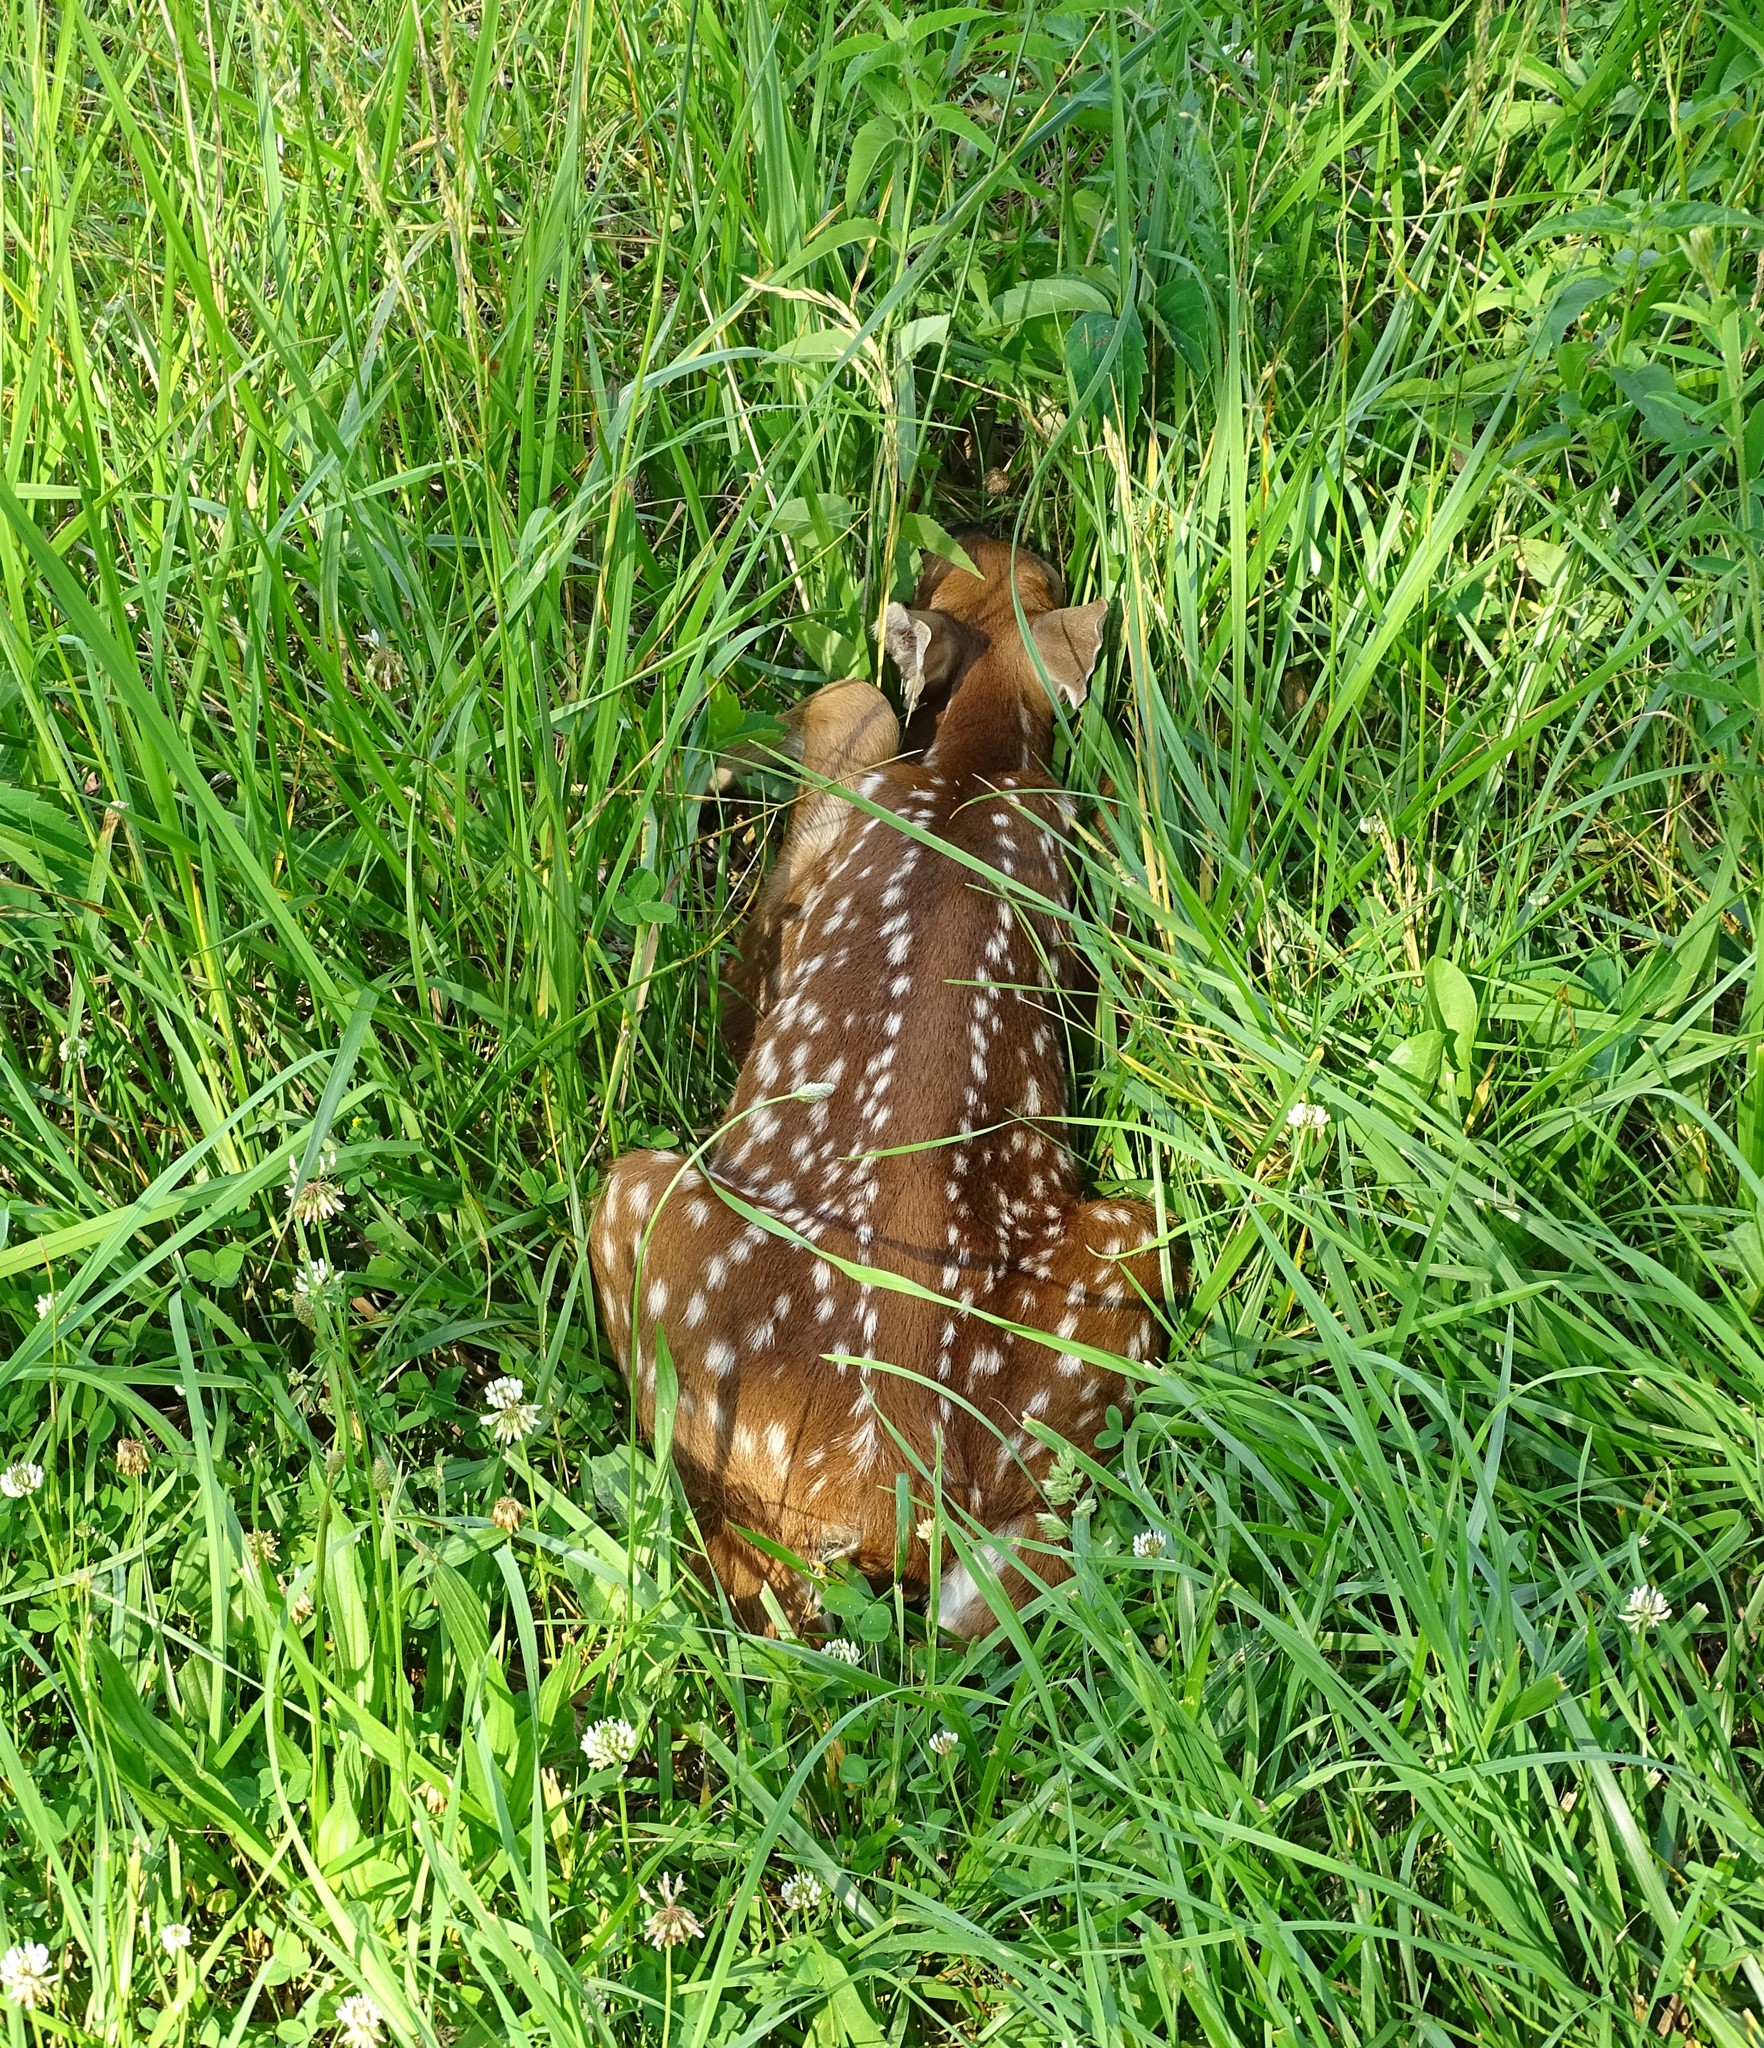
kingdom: Animalia
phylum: Chordata
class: Mammalia
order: Artiodactyla
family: Cervidae
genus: Odocoileus
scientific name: Odocoileus virginianus
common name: White-tailed deer
